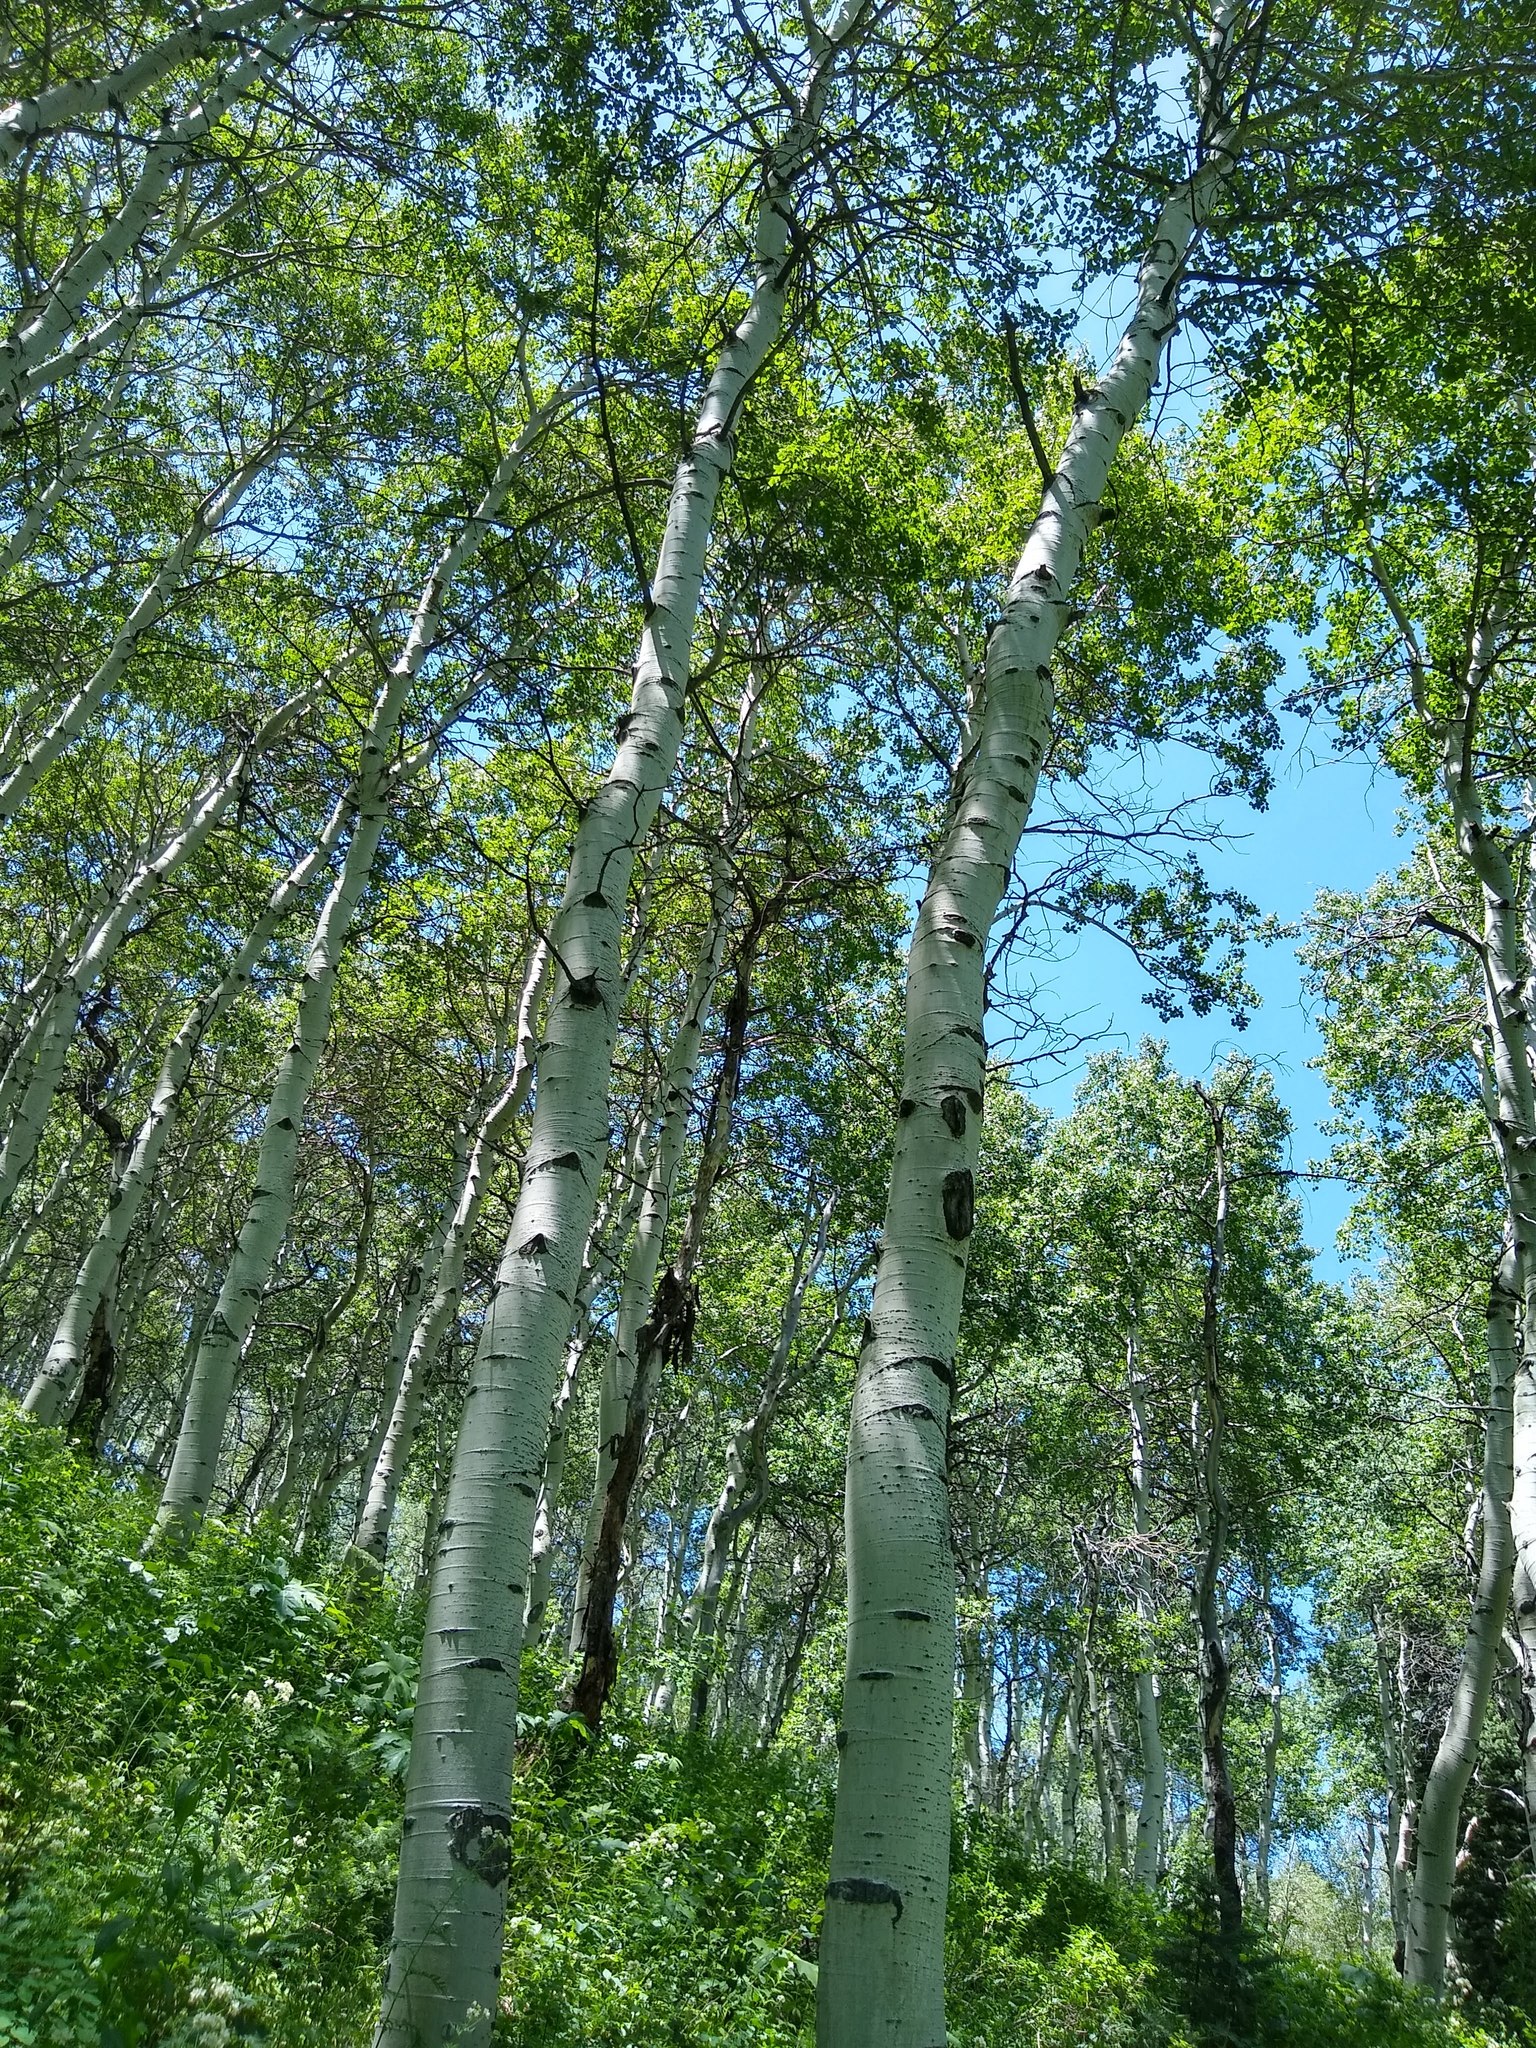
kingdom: Plantae
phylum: Tracheophyta
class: Magnoliopsida
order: Malpighiales
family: Salicaceae
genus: Populus
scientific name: Populus tremuloides
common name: Quaking aspen
